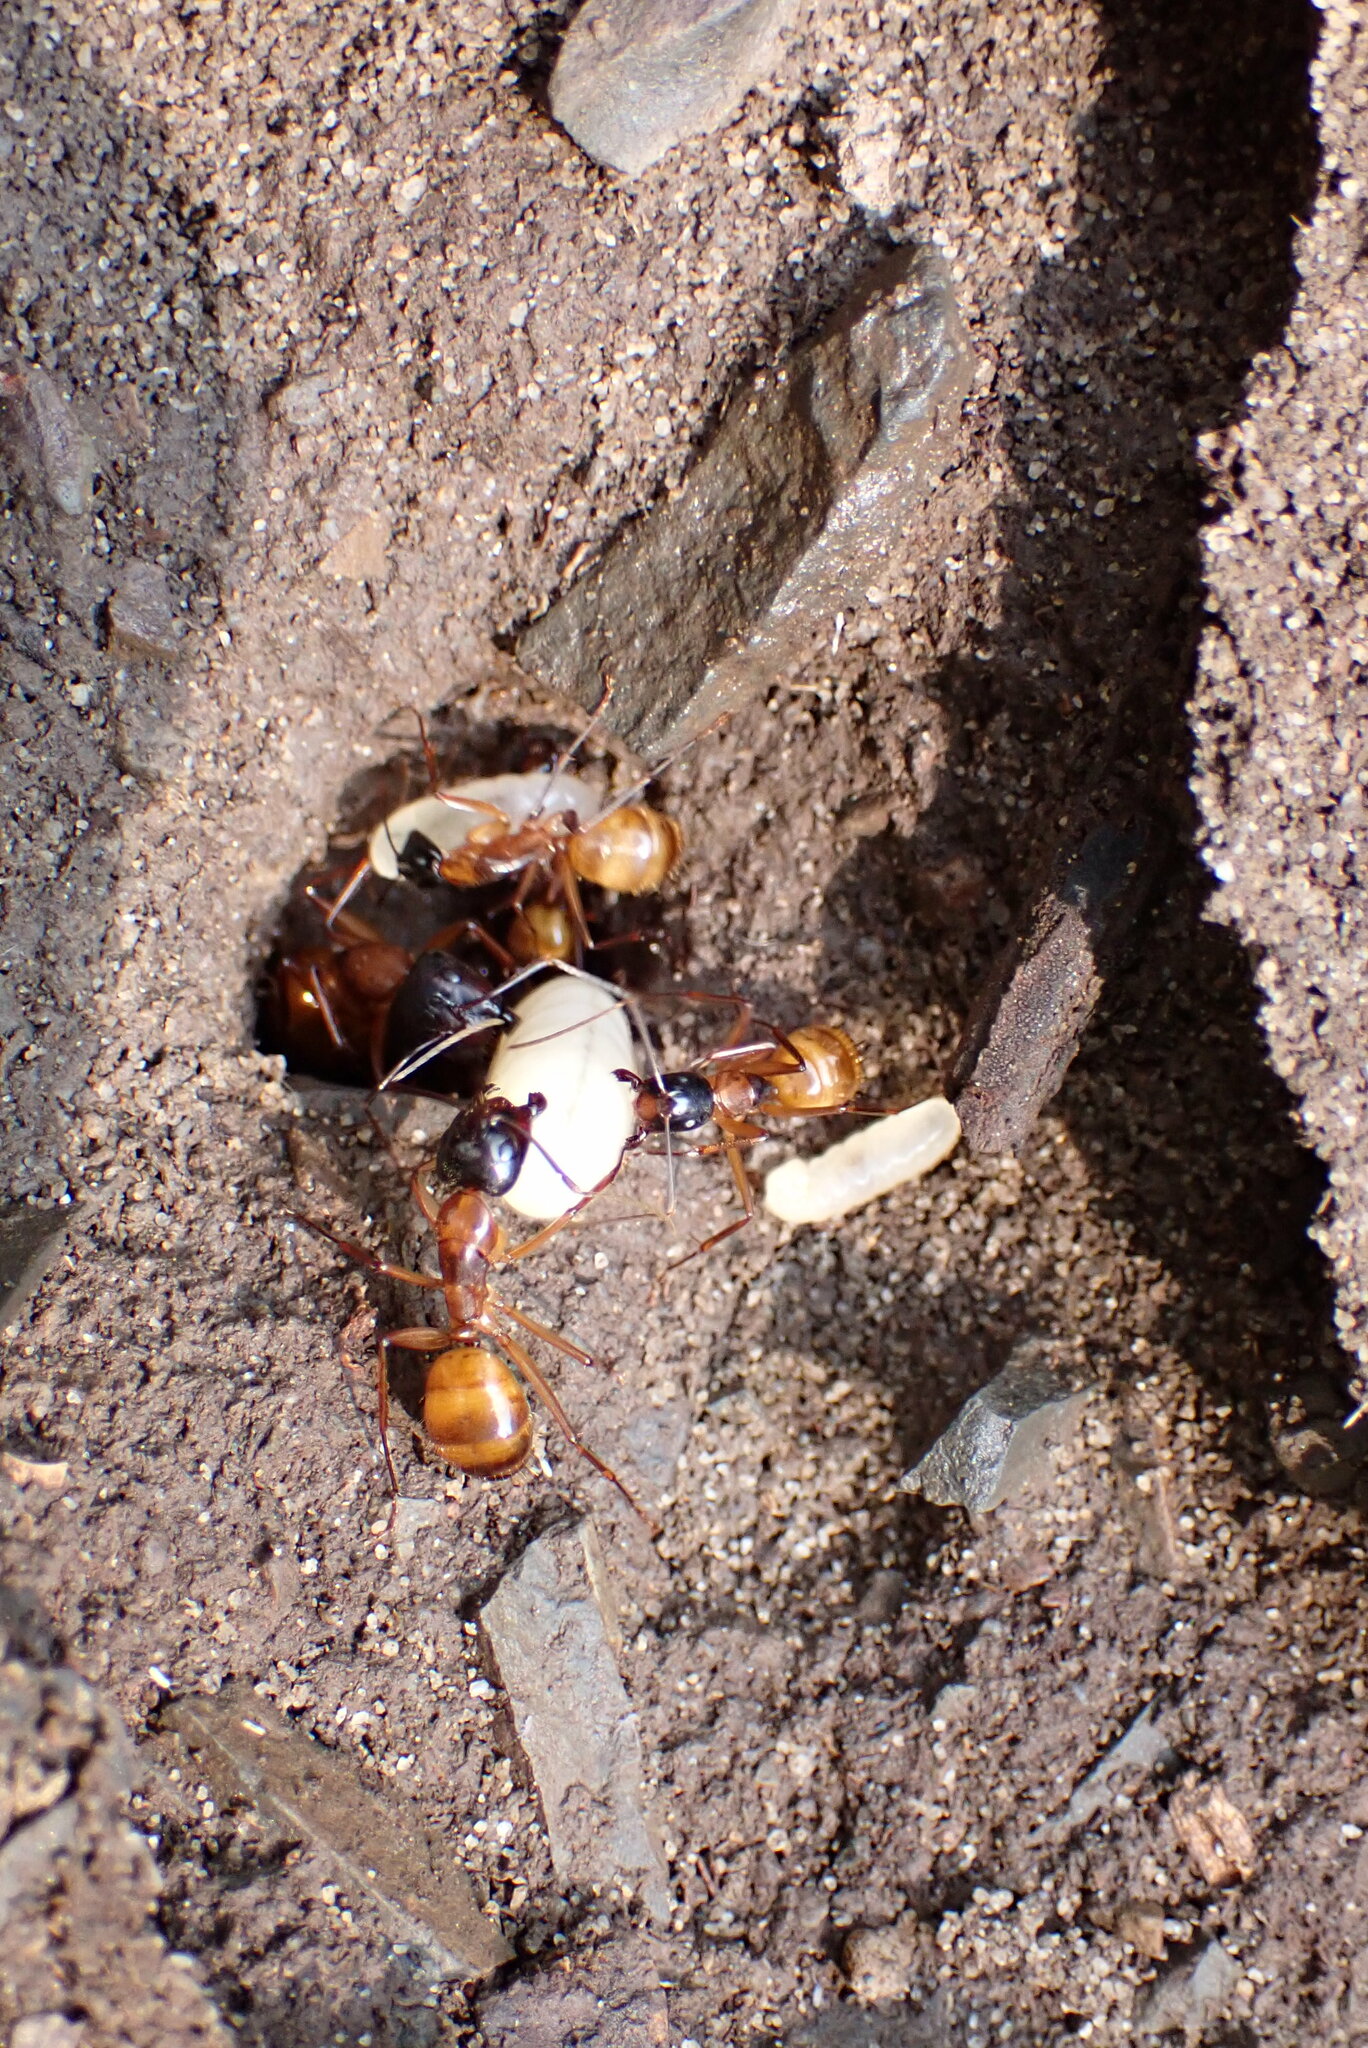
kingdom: Animalia
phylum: Arthropoda
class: Insecta
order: Hymenoptera
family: Formicidae
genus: Camponotus
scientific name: Camponotus americanus
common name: American carpenter ant
